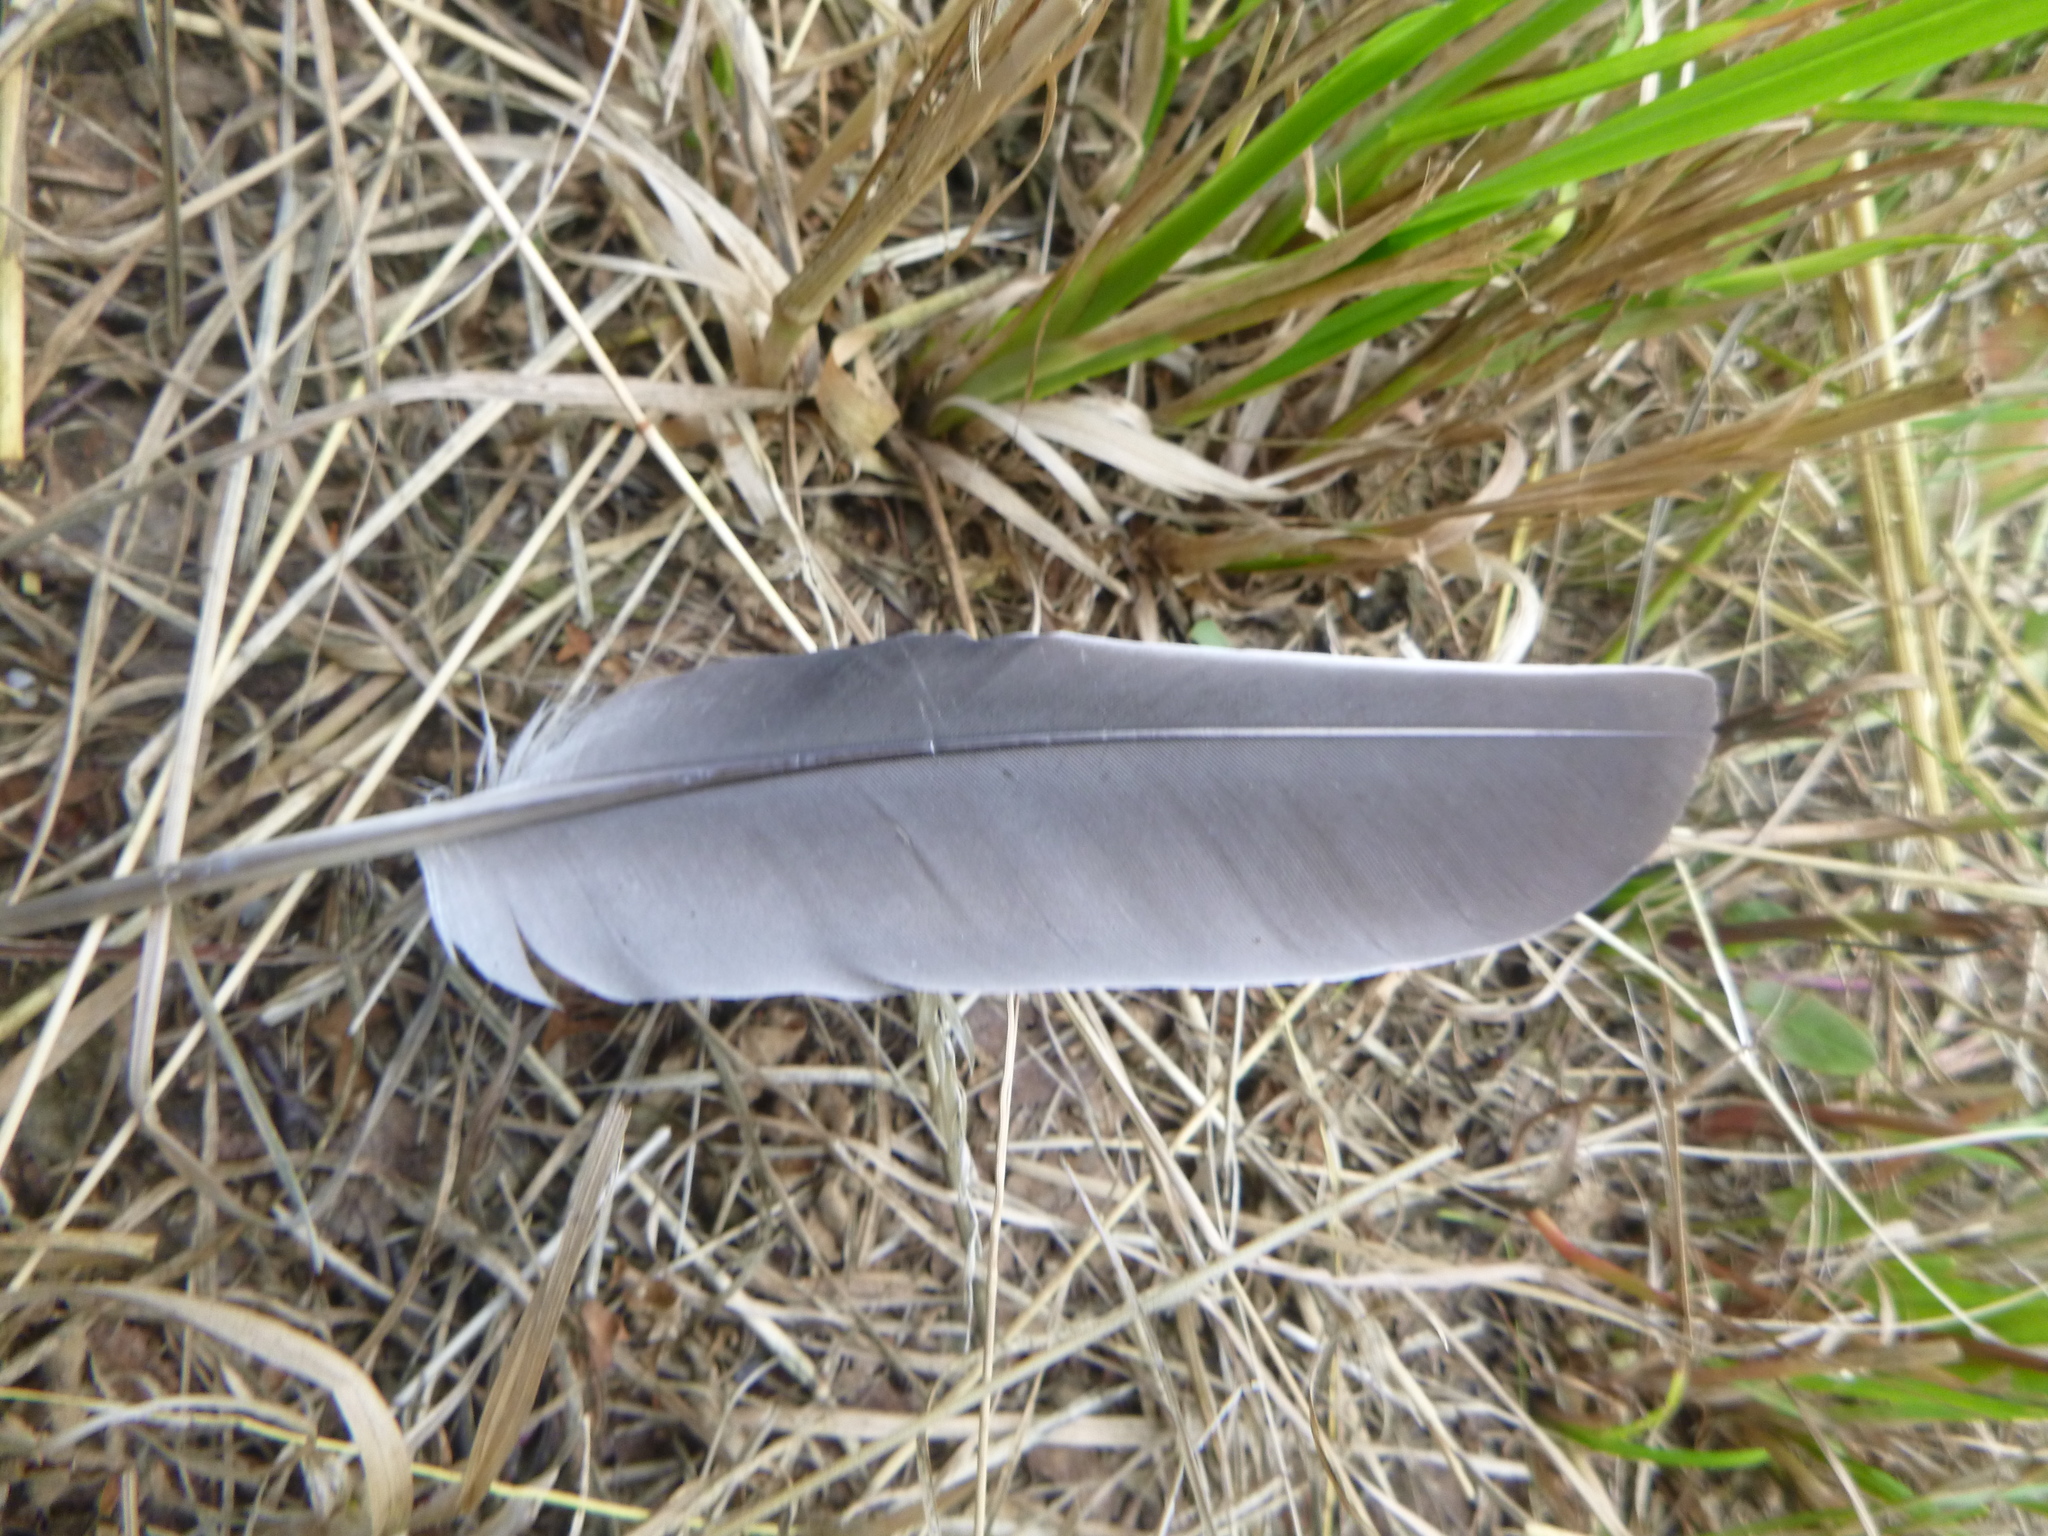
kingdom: Animalia
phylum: Chordata
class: Aves
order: Columbiformes
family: Columbidae
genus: Columba
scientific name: Columba palumbus
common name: Common wood pigeon
